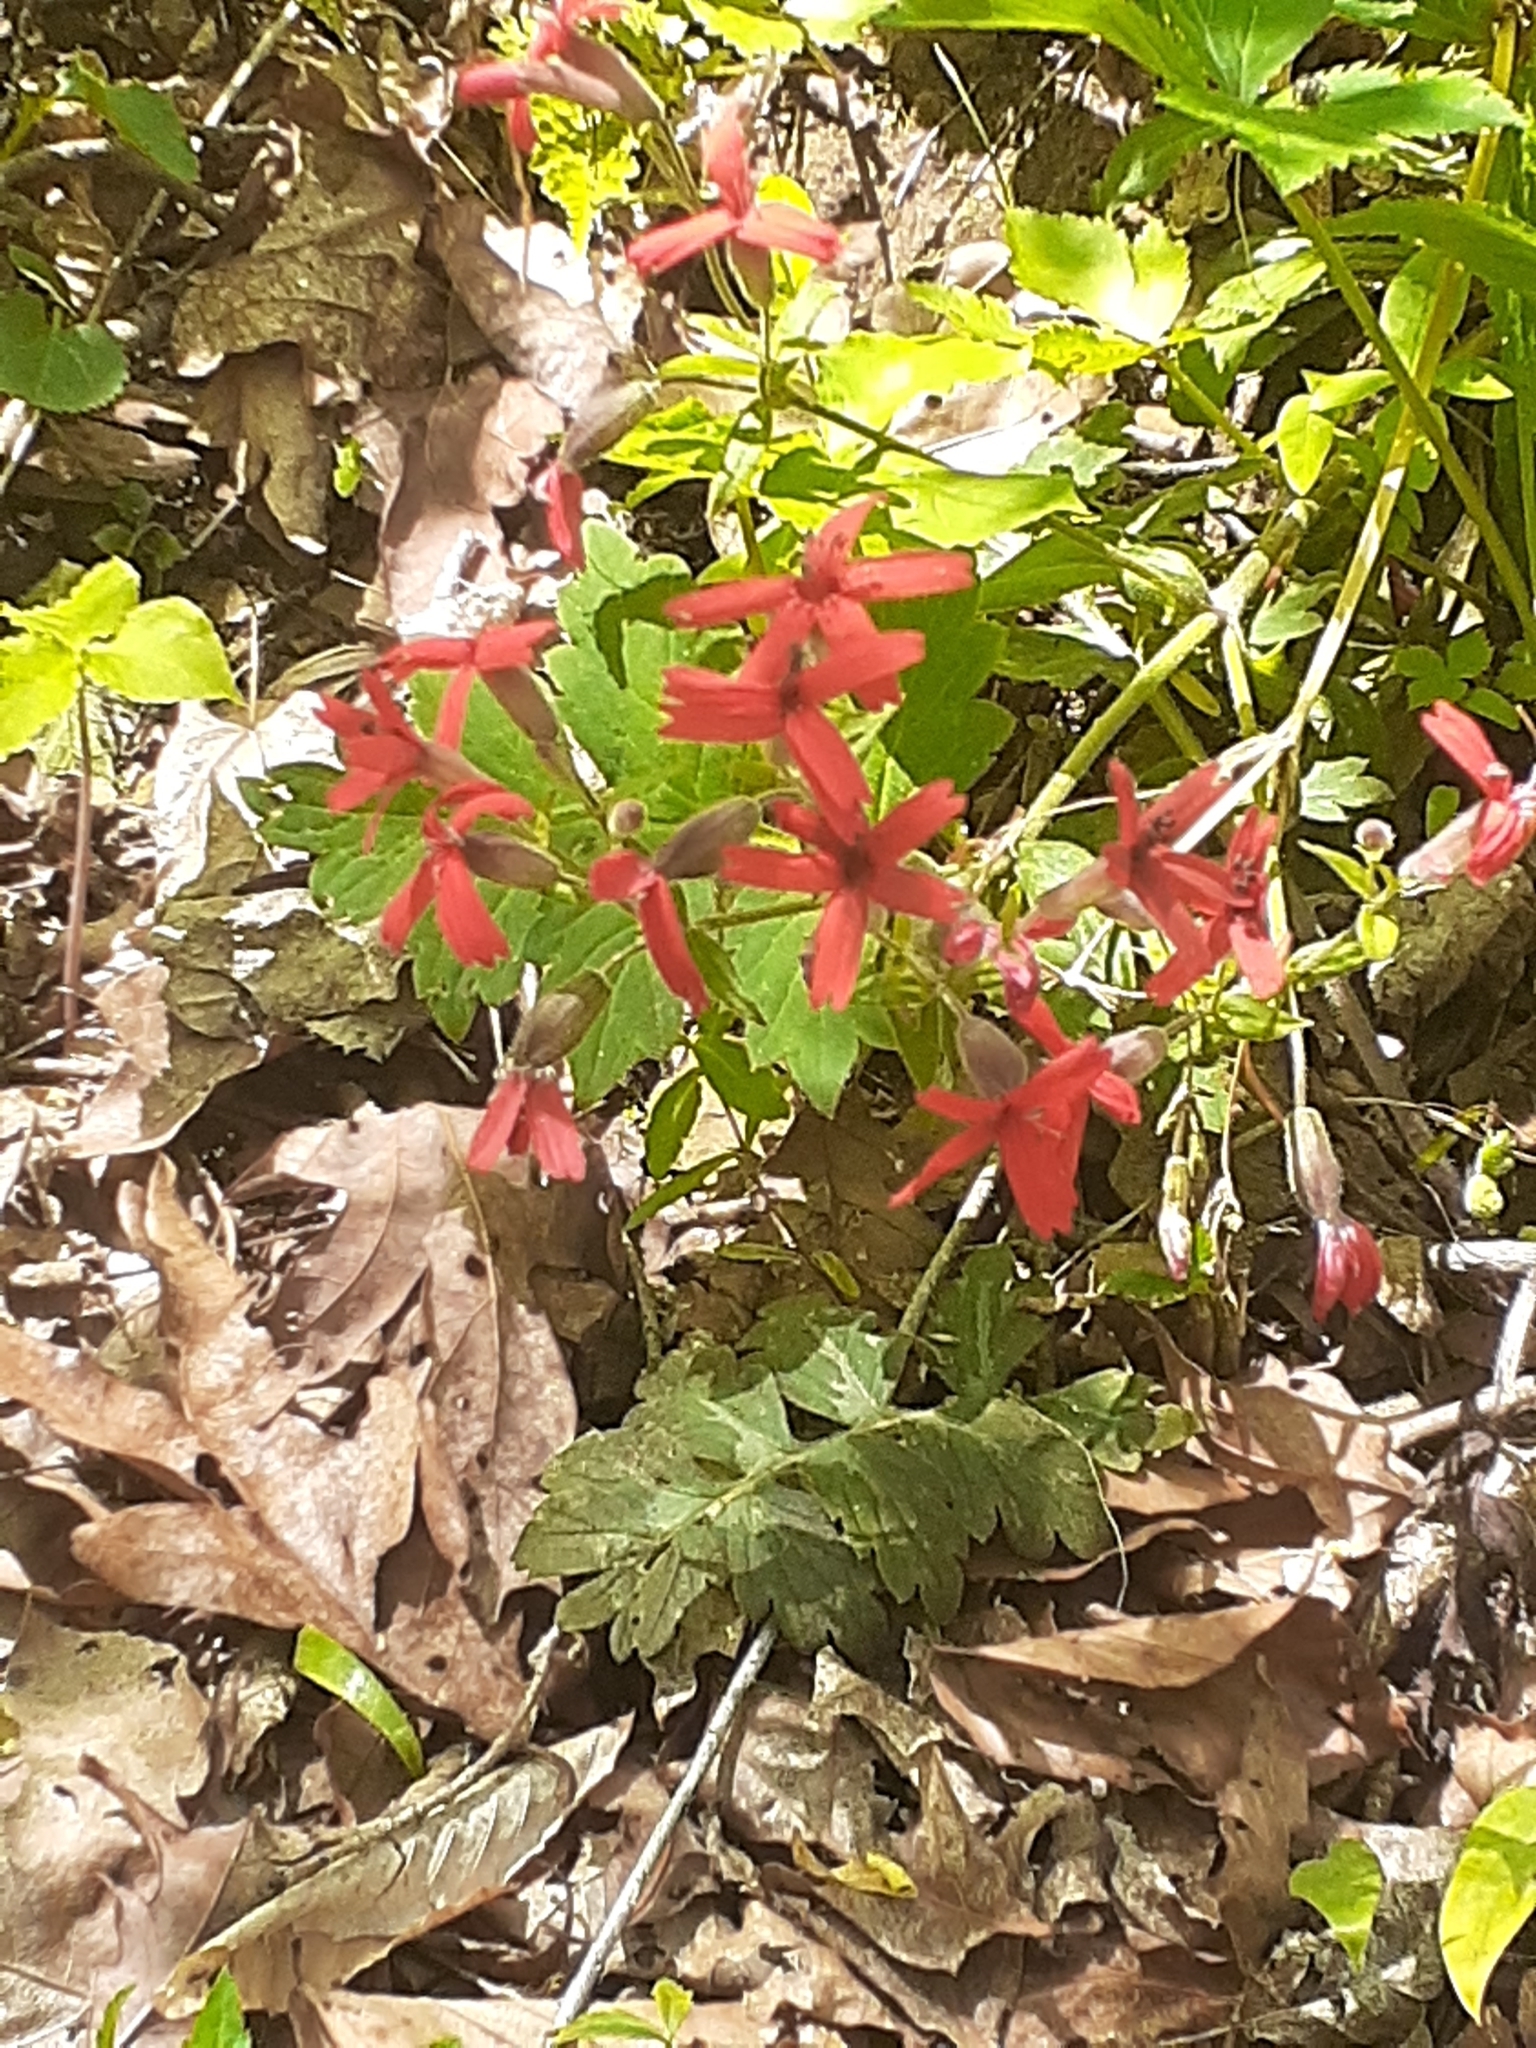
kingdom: Plantae
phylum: Tracheophyta
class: Magnoliopsida
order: Caryophyllales
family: Caryophyllaceae
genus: Silene
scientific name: Silene virginica
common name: Fire-pink
